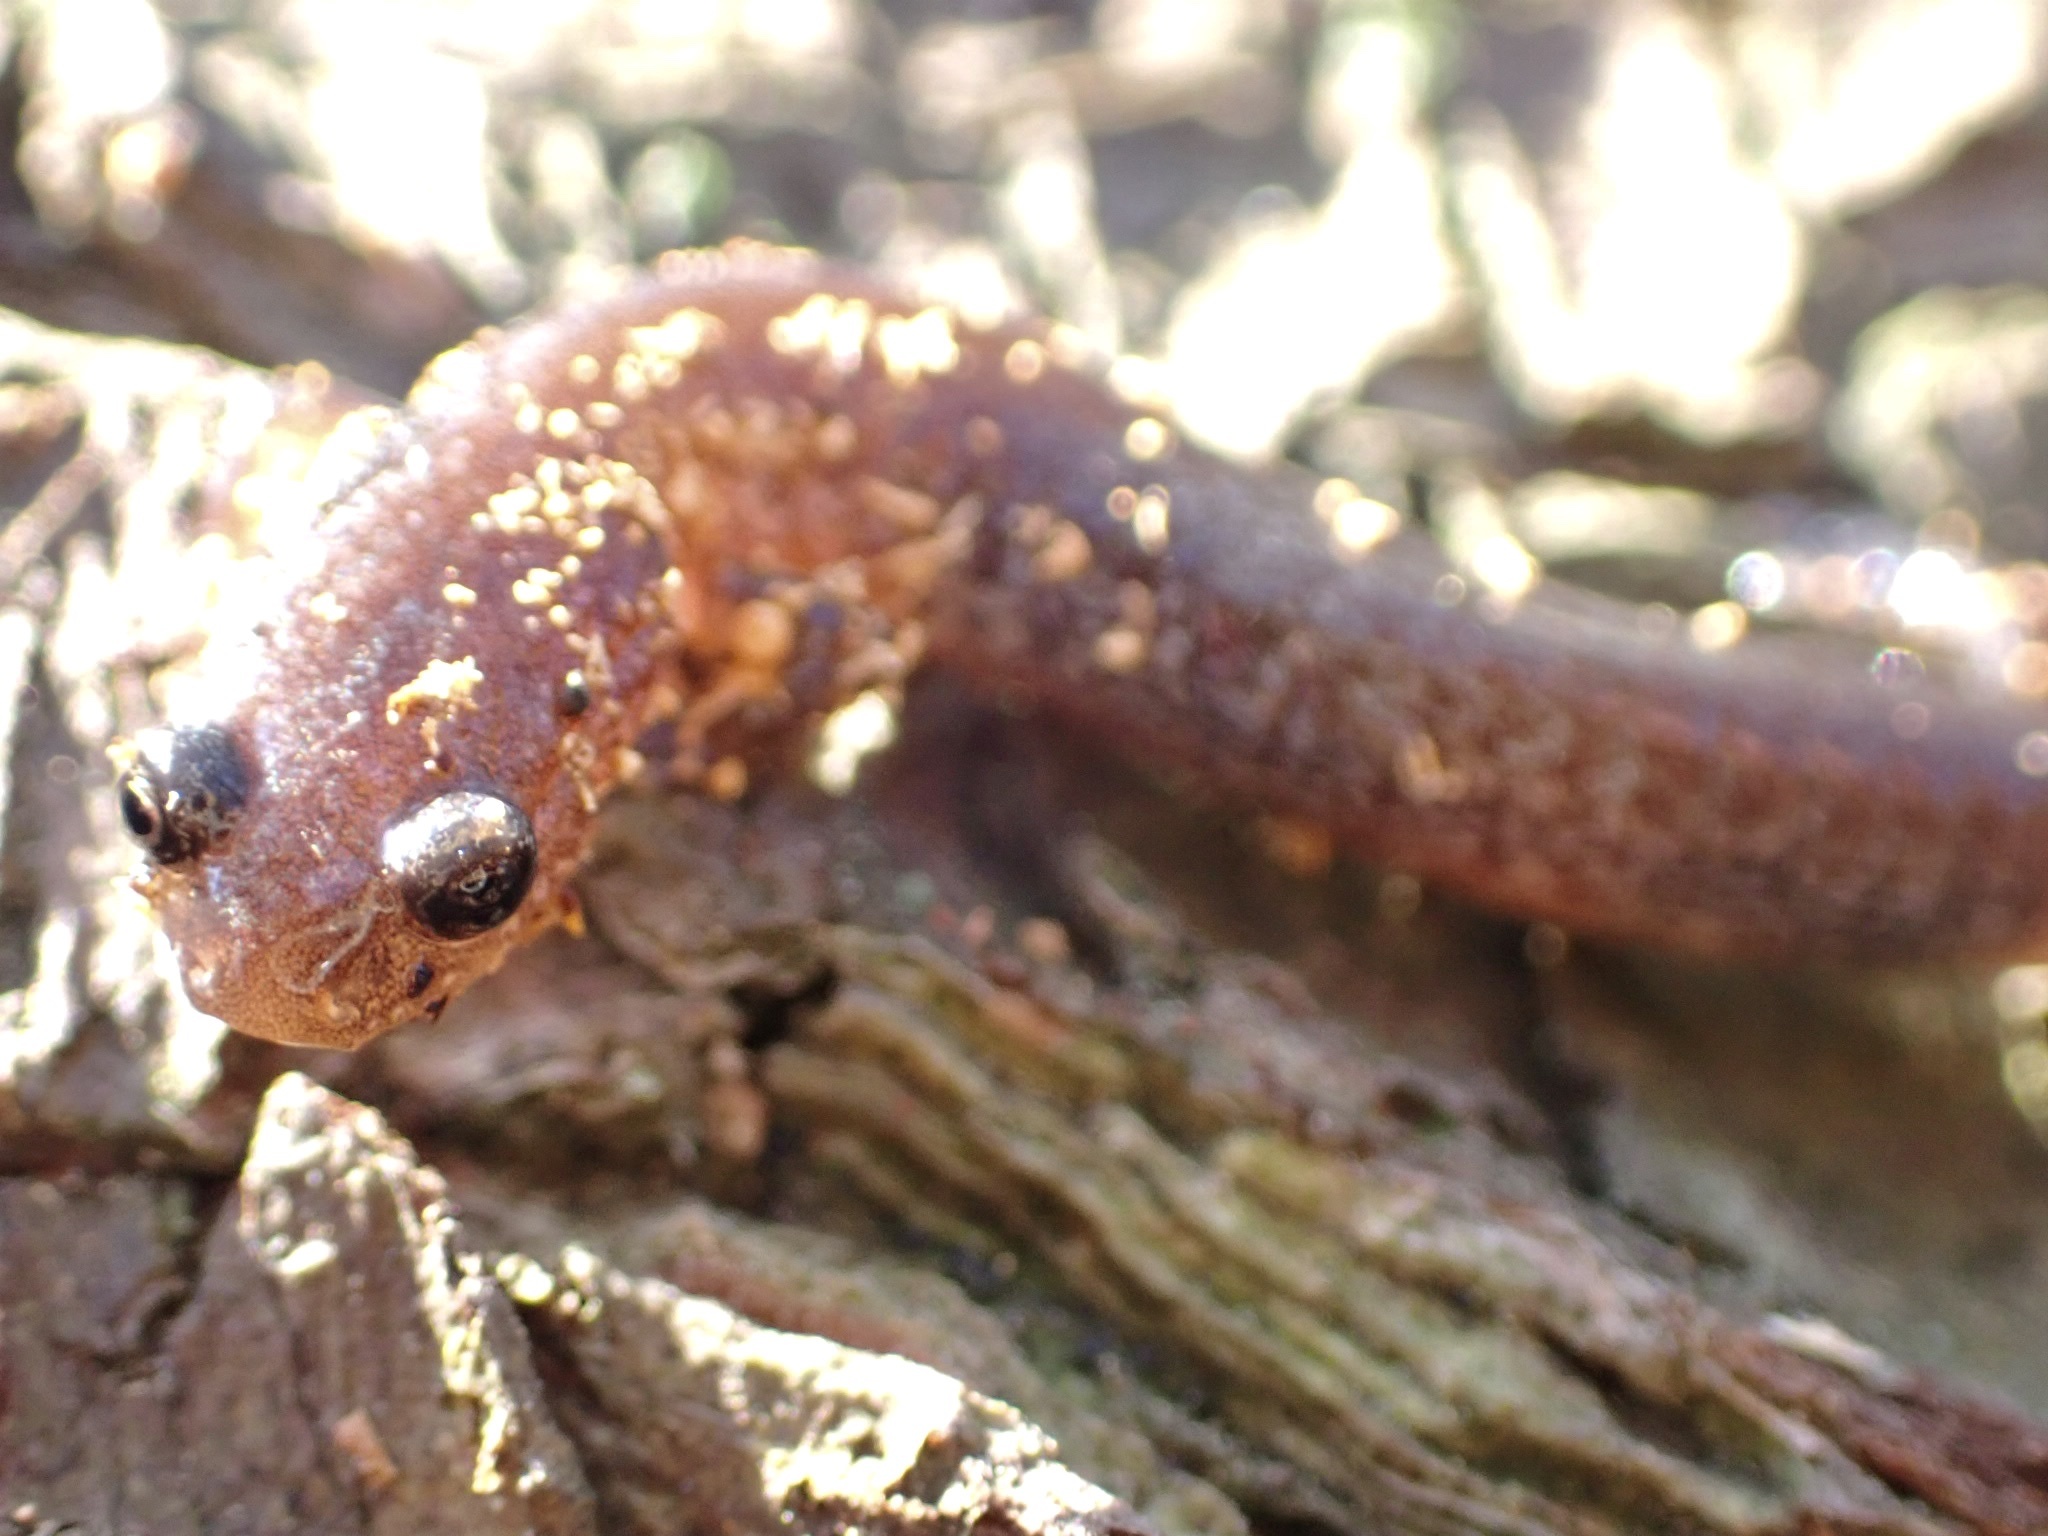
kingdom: Animalia
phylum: Chordata
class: Amphibia
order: Caudata
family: Plethodontidae
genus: Plethodon
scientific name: Plethodon cinereus
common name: Redback salamander
